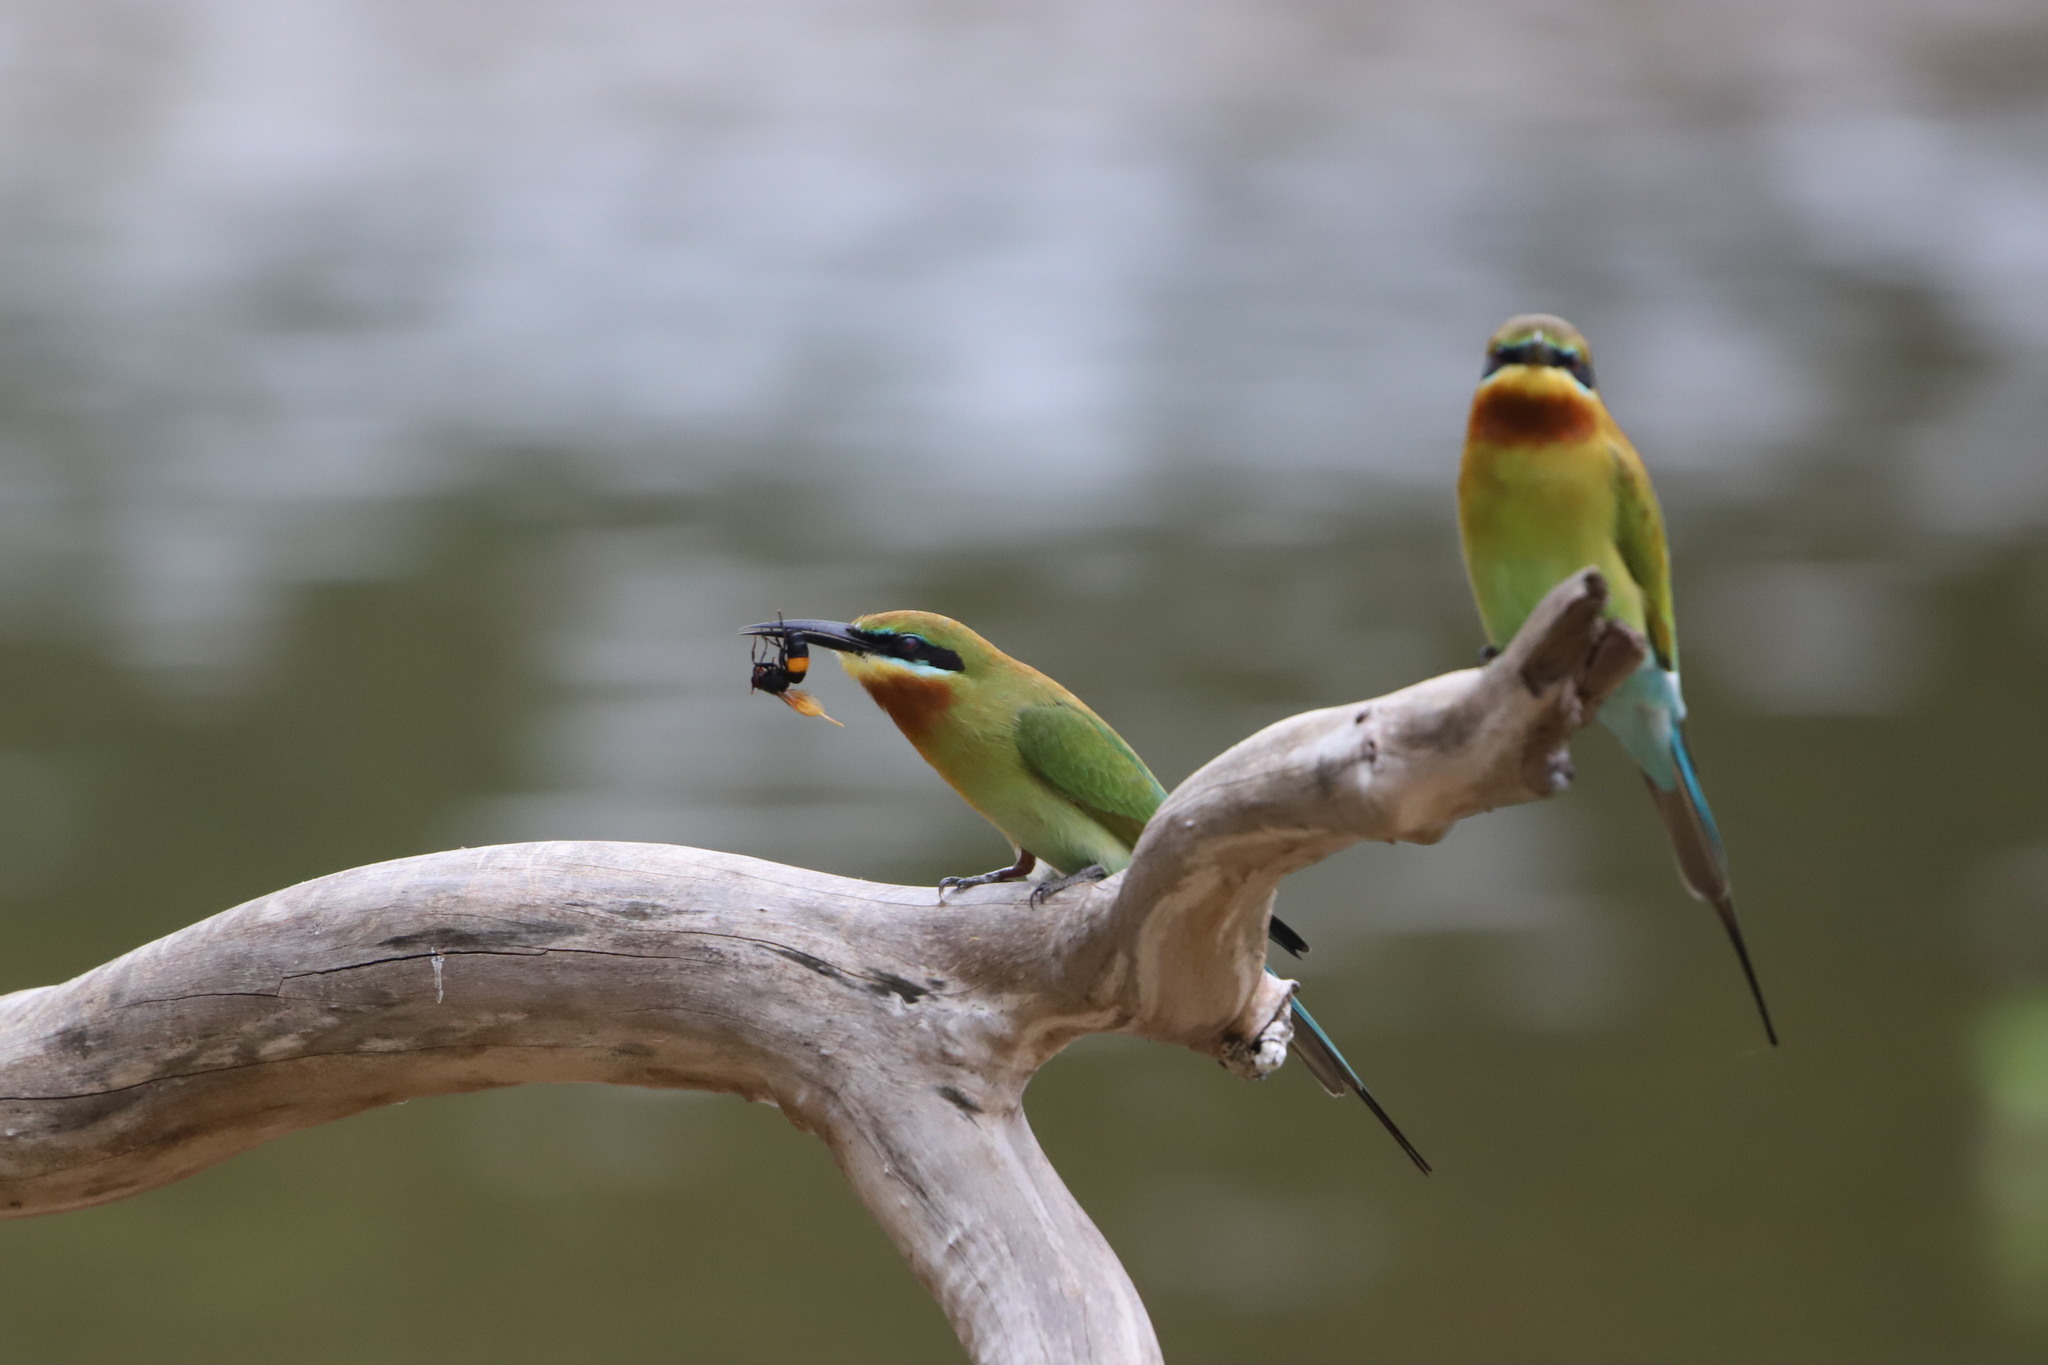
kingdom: Animalia
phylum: Arthropoda
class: Insecta
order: Hymenoptera
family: Vespidae
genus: Vespa
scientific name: Vespa tropica
